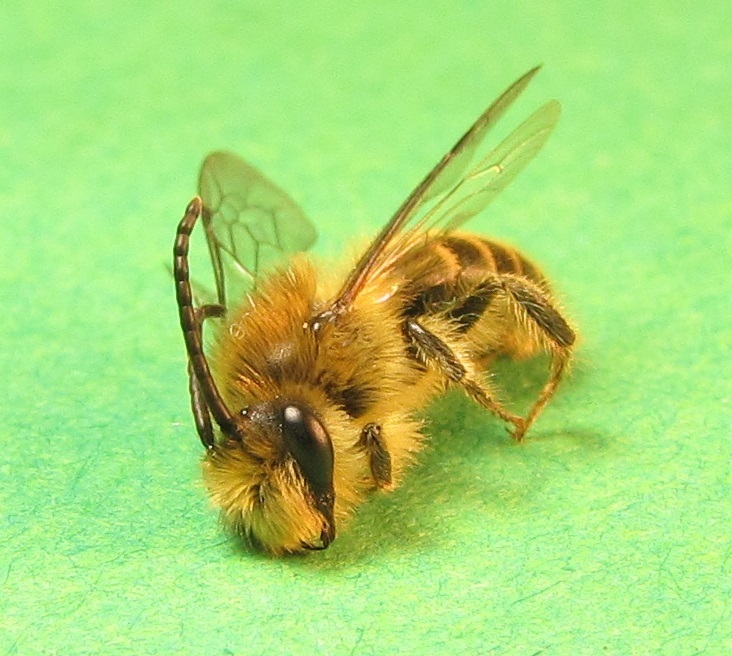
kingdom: Animalia
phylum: Arthropoda
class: Insecta
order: Hymenoptera
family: Colletidae
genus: Colletes
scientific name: Colletes inaequalis
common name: Unequal cellophane bee
